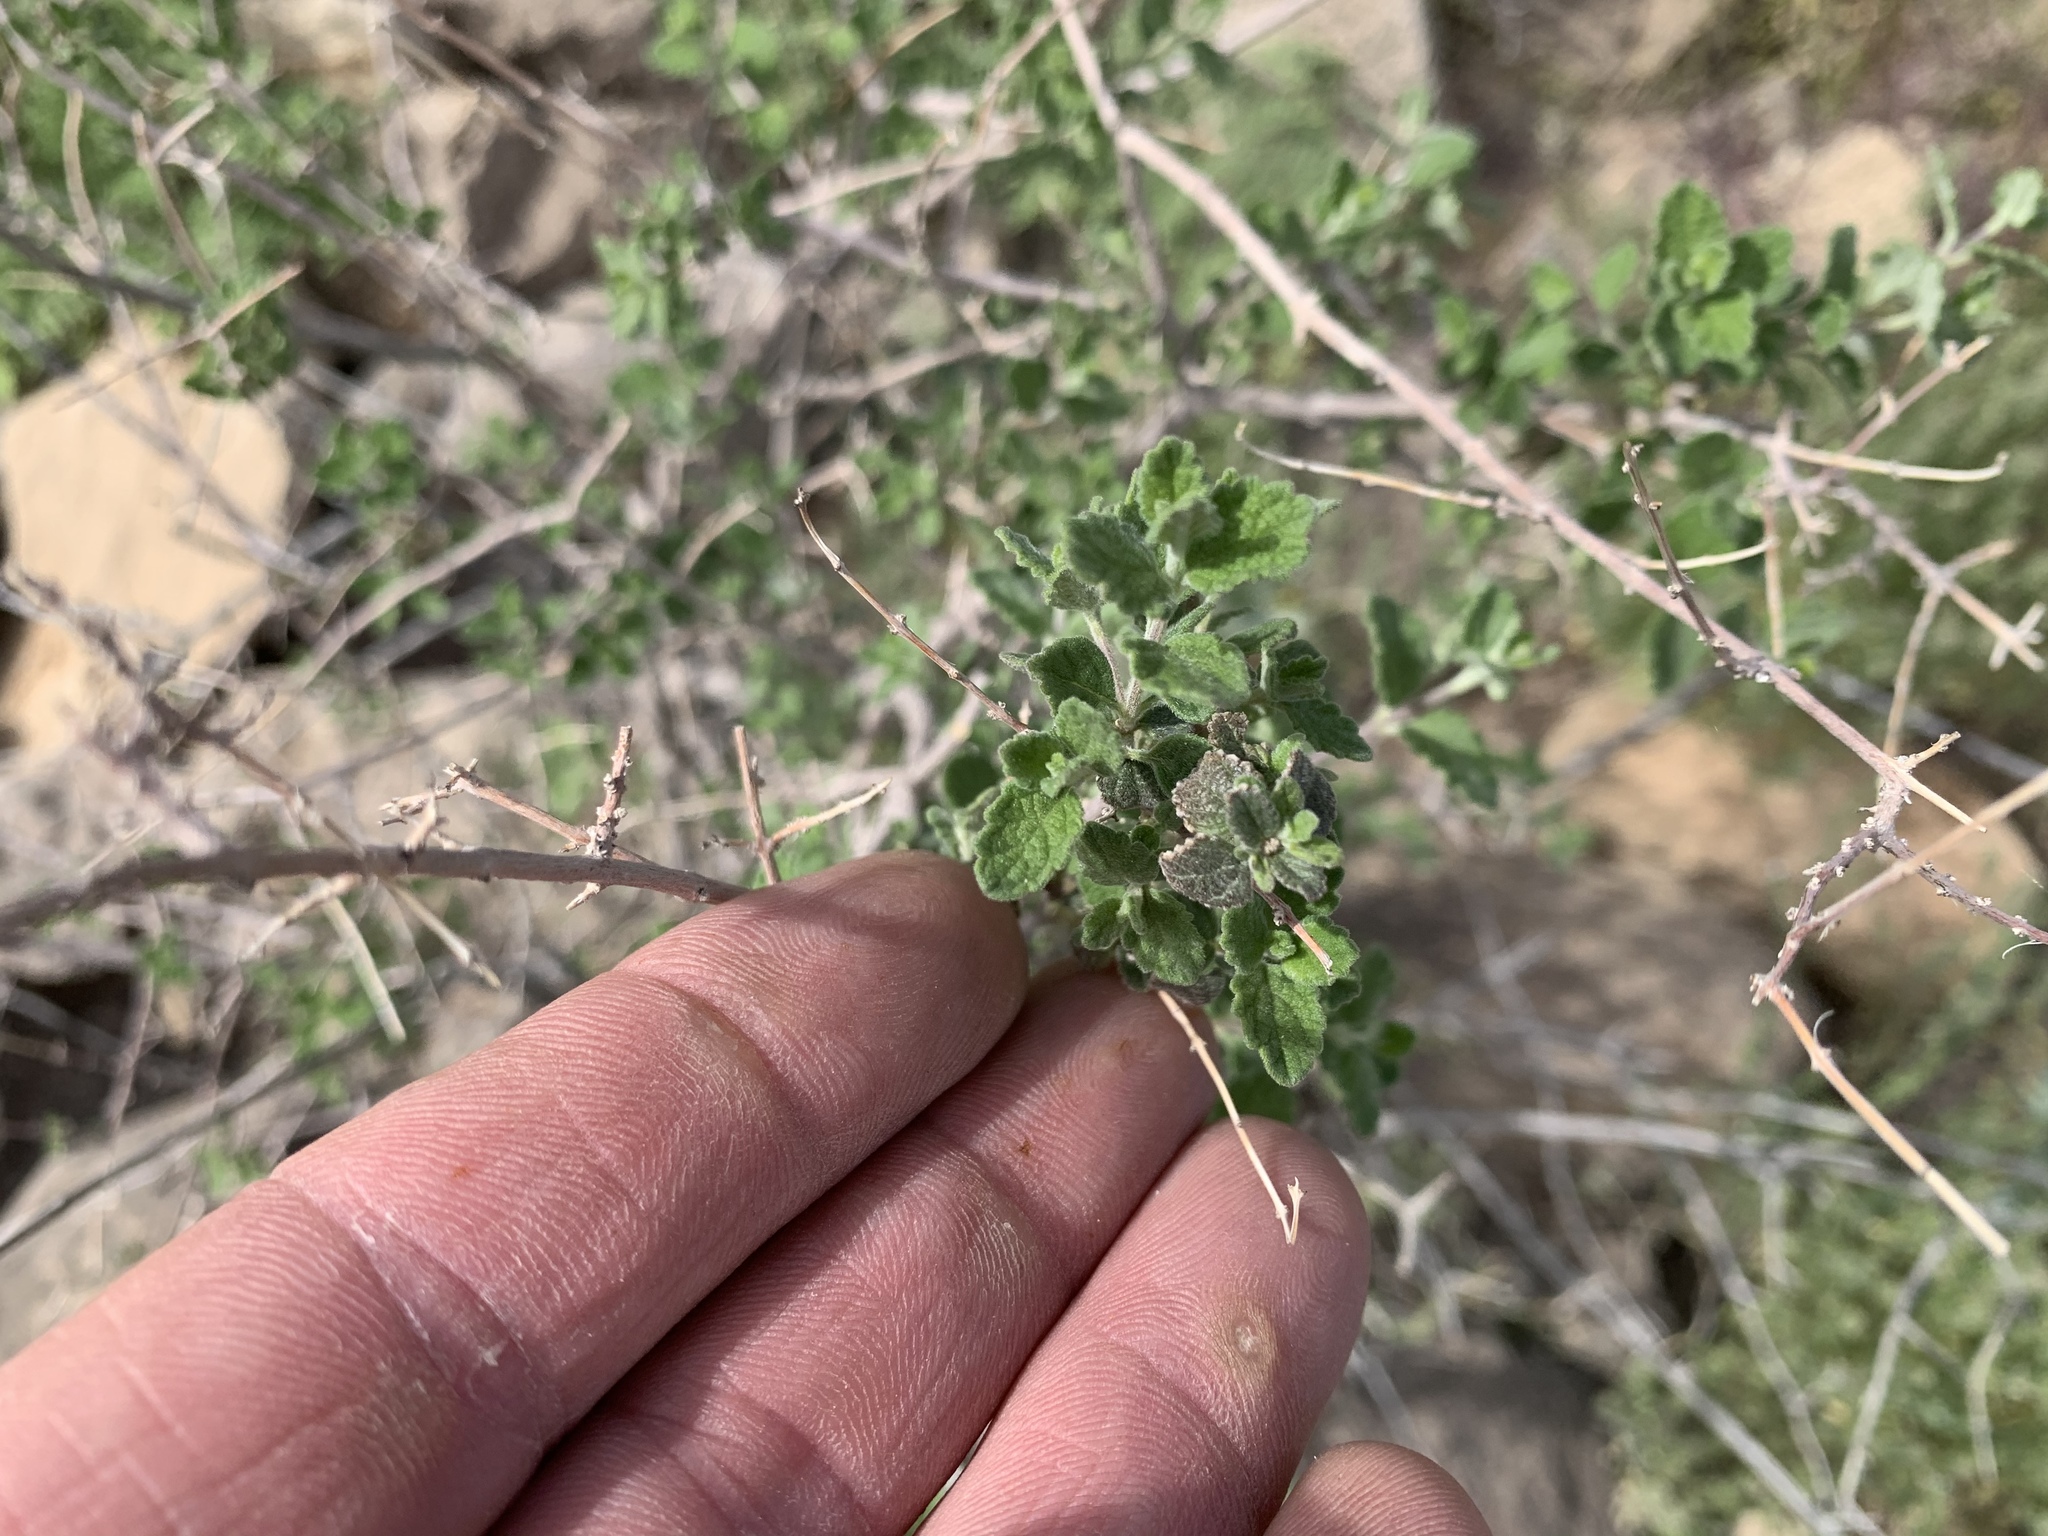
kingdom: Plantae
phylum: Tracheophyta
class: Magnoliopsida
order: Lamiales
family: Verbenaceae
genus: Aloysia
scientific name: Aloysia wrightii
